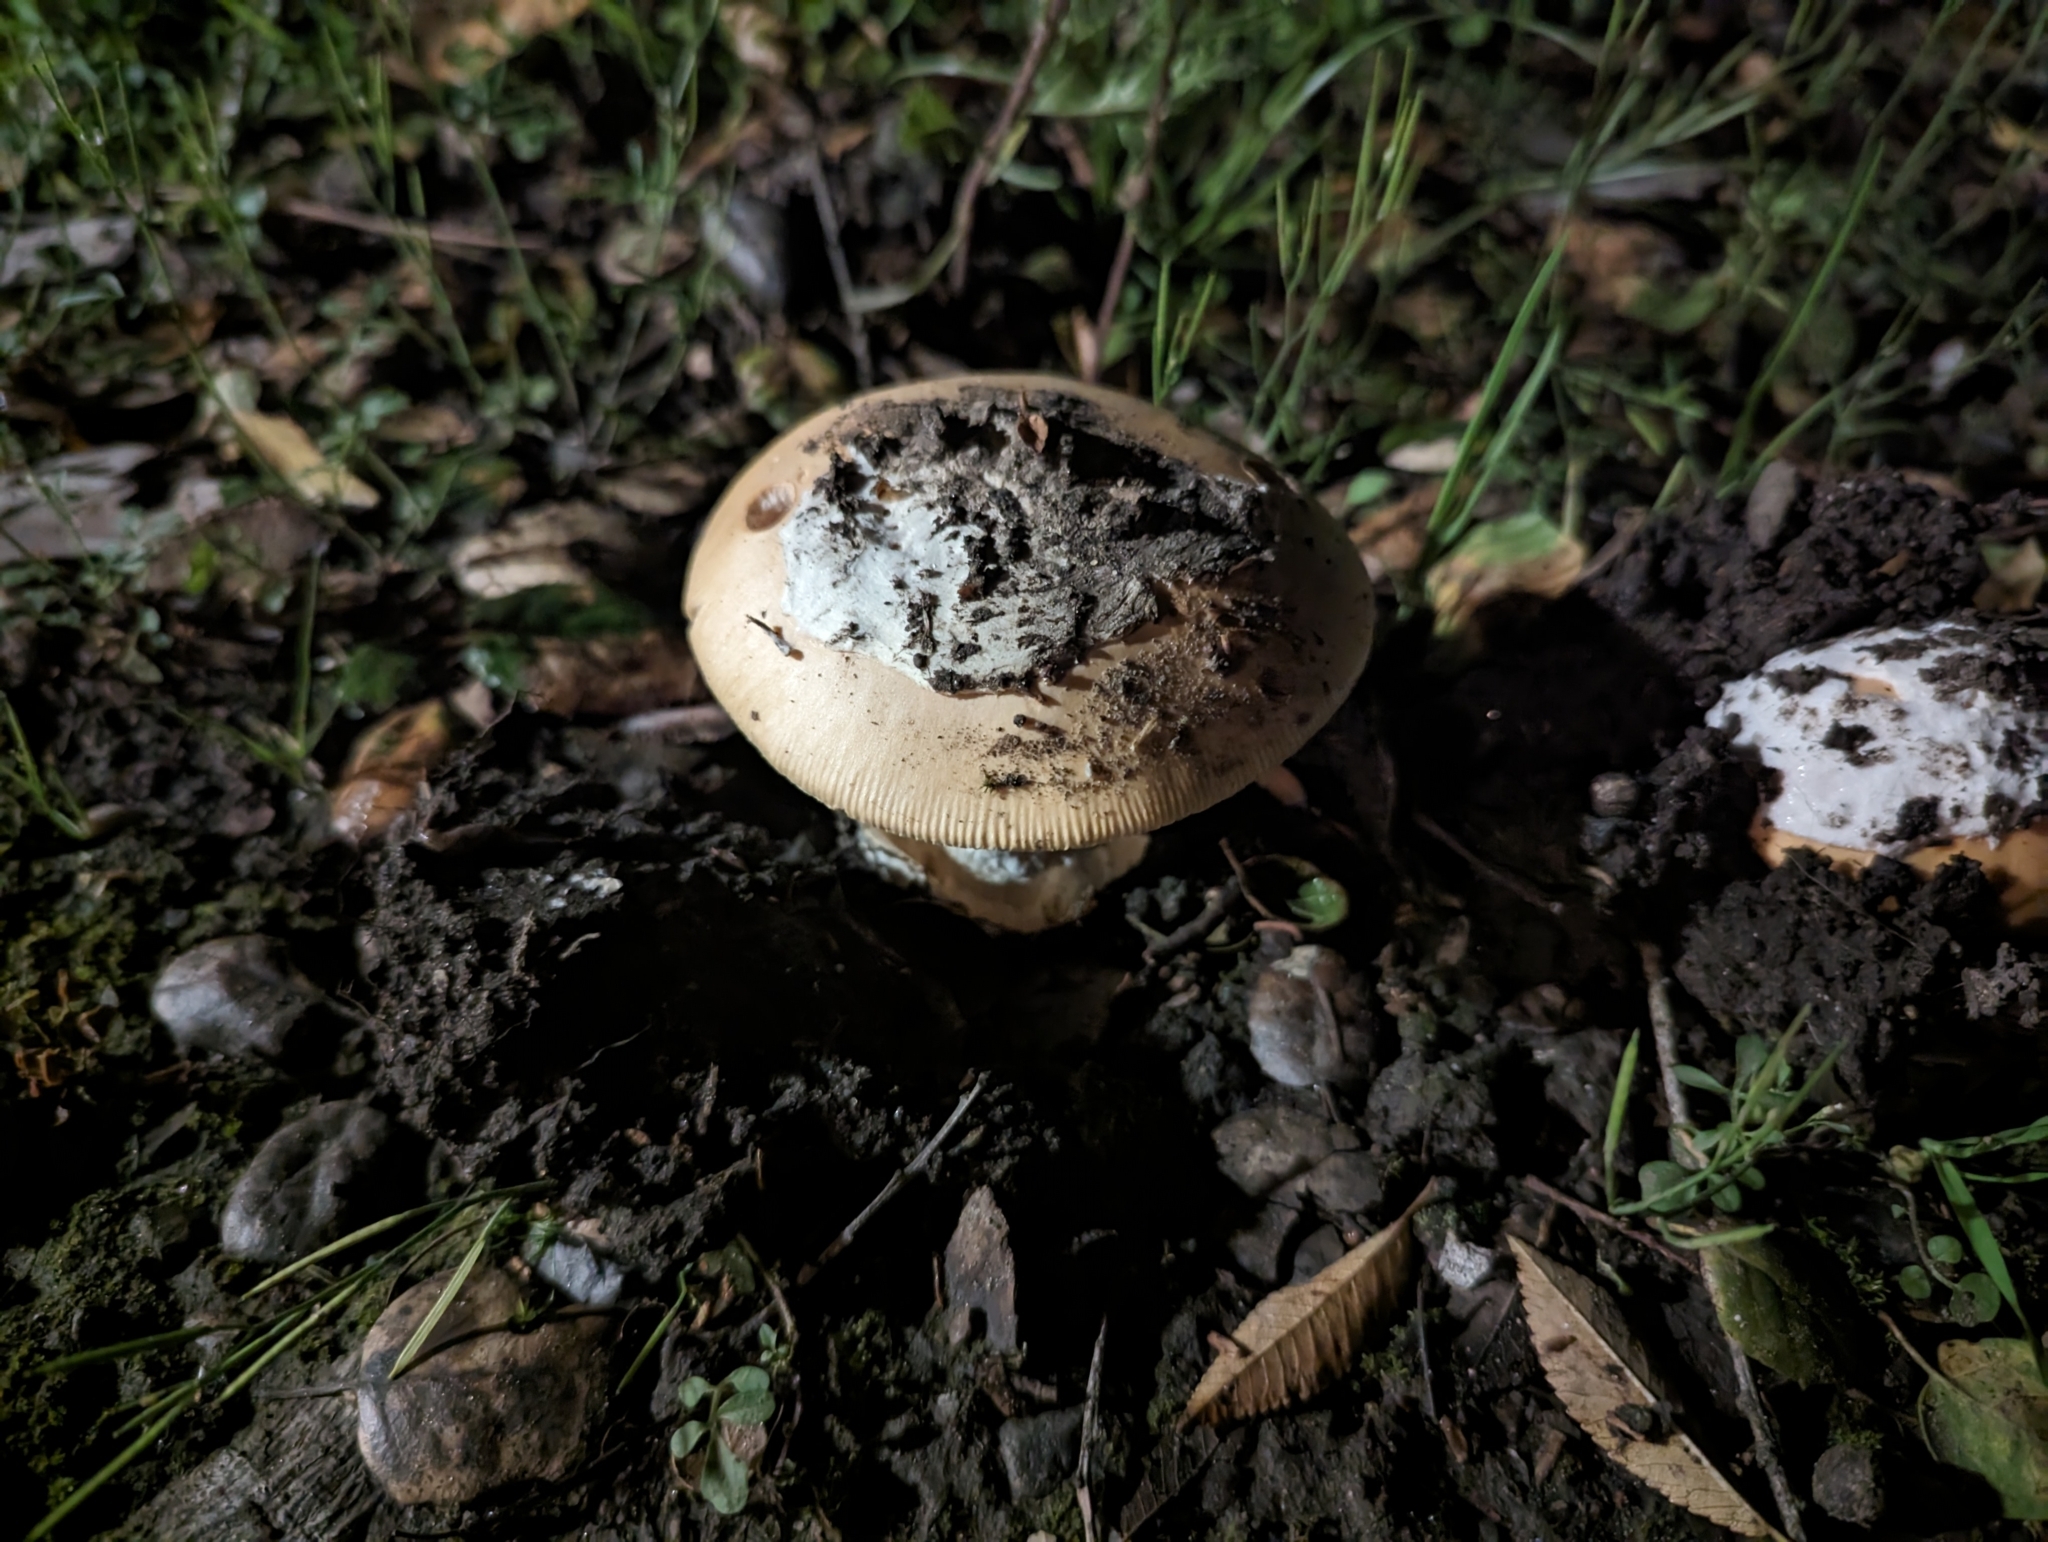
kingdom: Fungi
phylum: Basidiomycota
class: Agaricomycetes
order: Agaricales
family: Amanitaceae
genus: Amanita
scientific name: Amanita velosa
